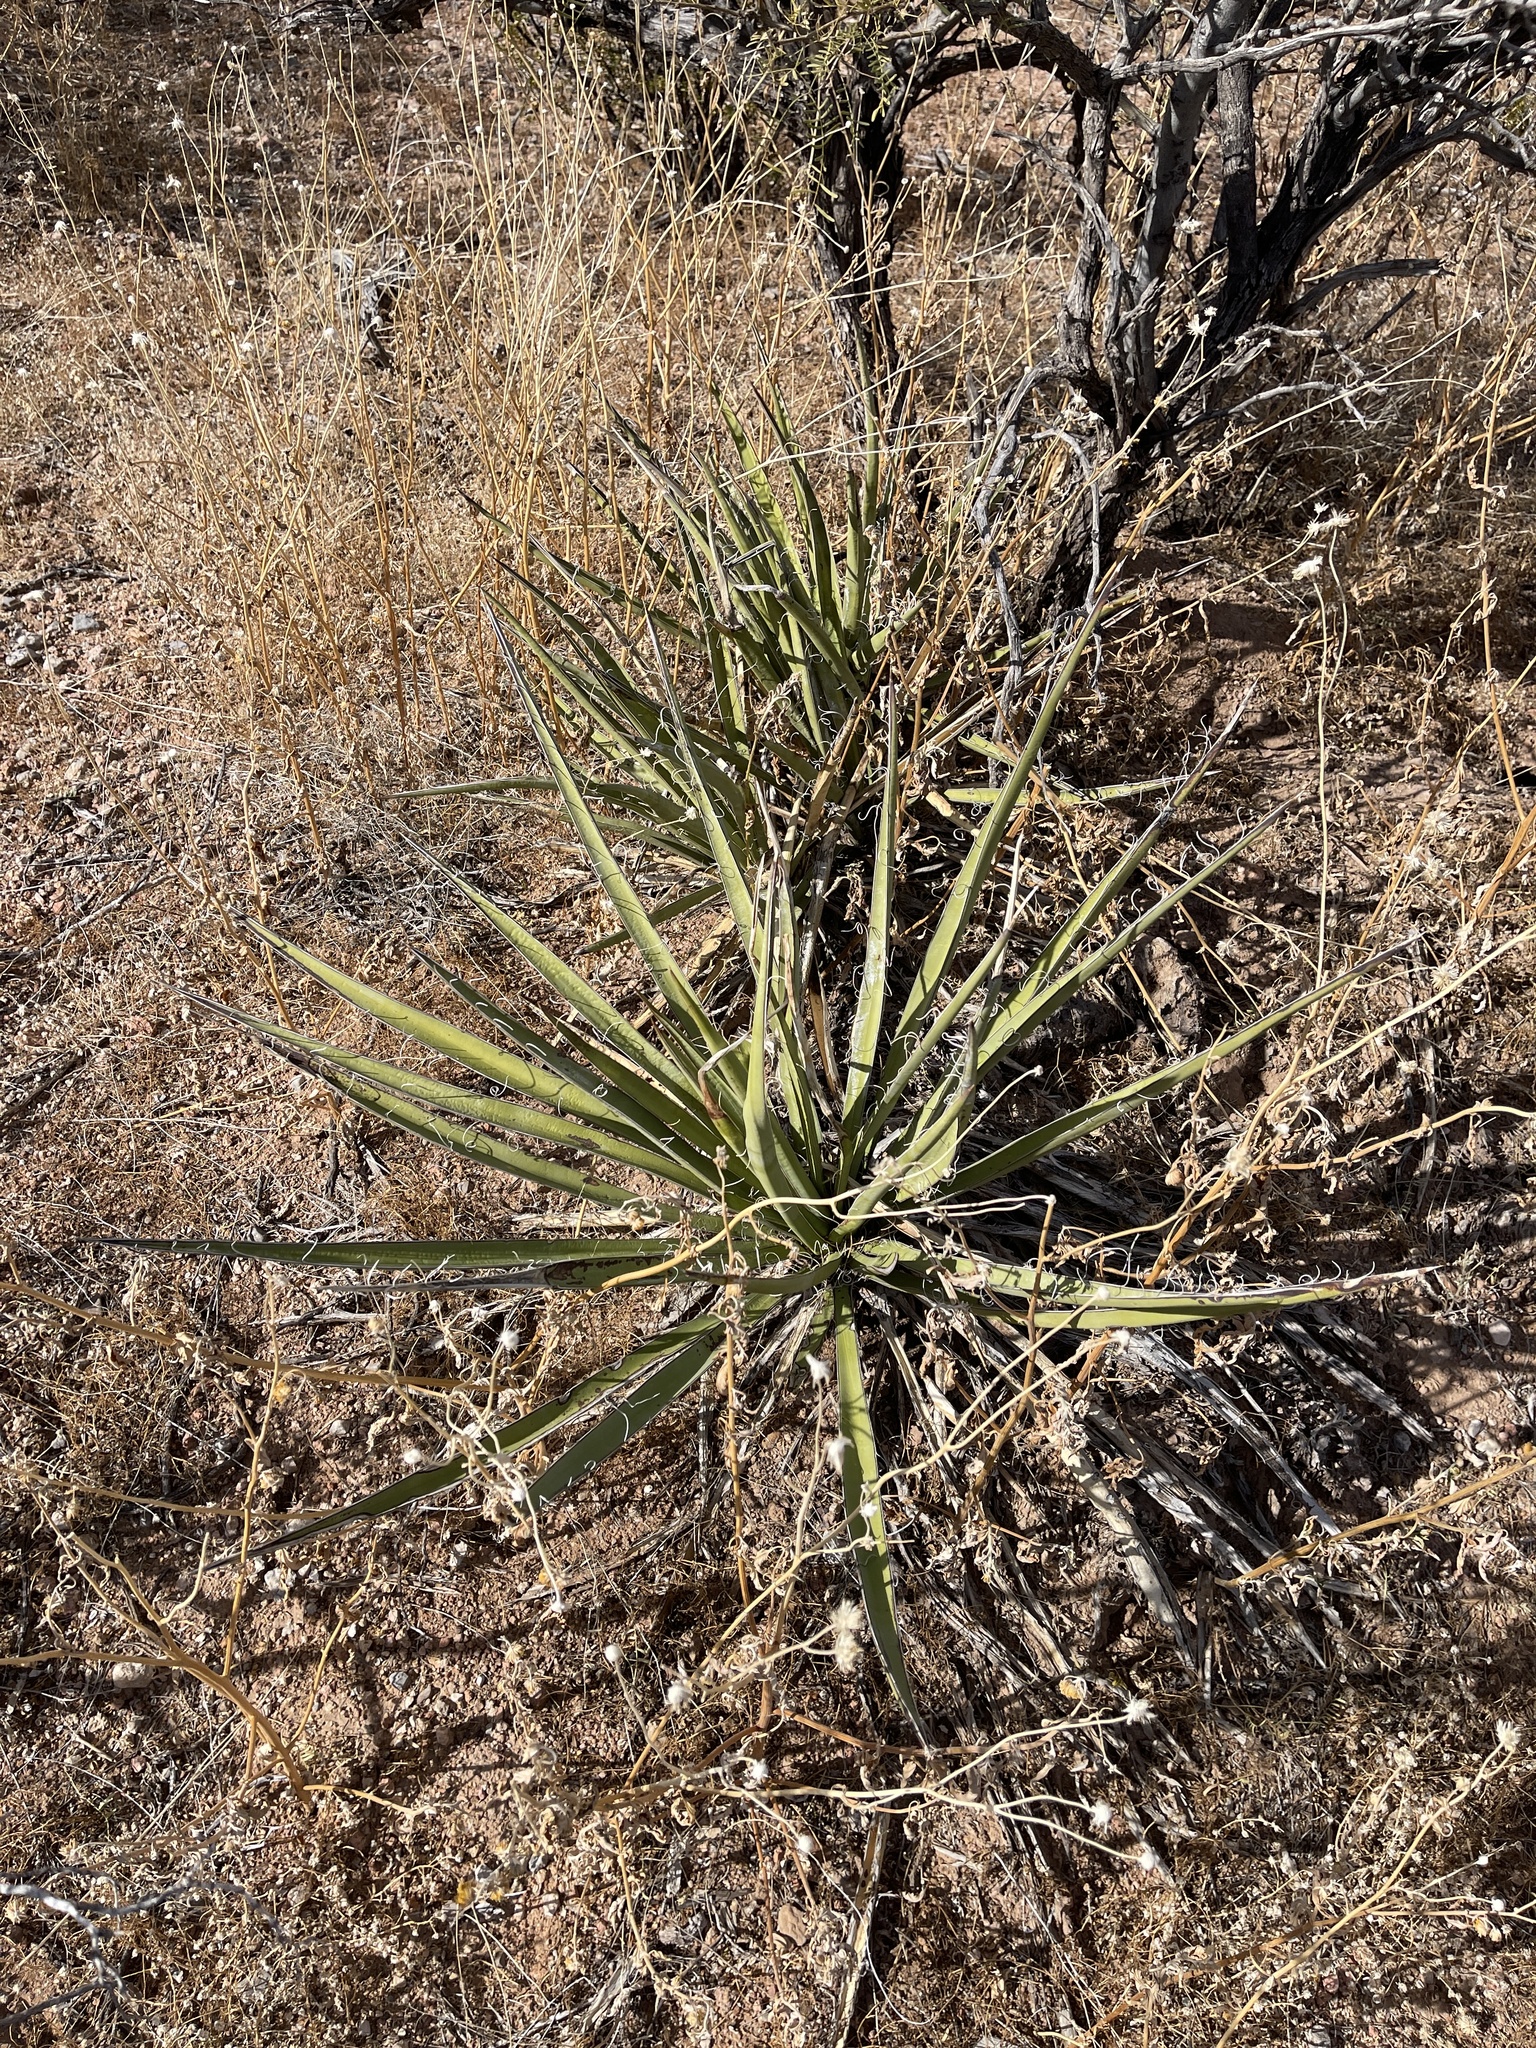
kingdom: Plantae
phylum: Tracheophyta
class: Liliopsida
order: Asparagales
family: Asparagaceae
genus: Yucca
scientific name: Yucca baccata
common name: Banana yucca
